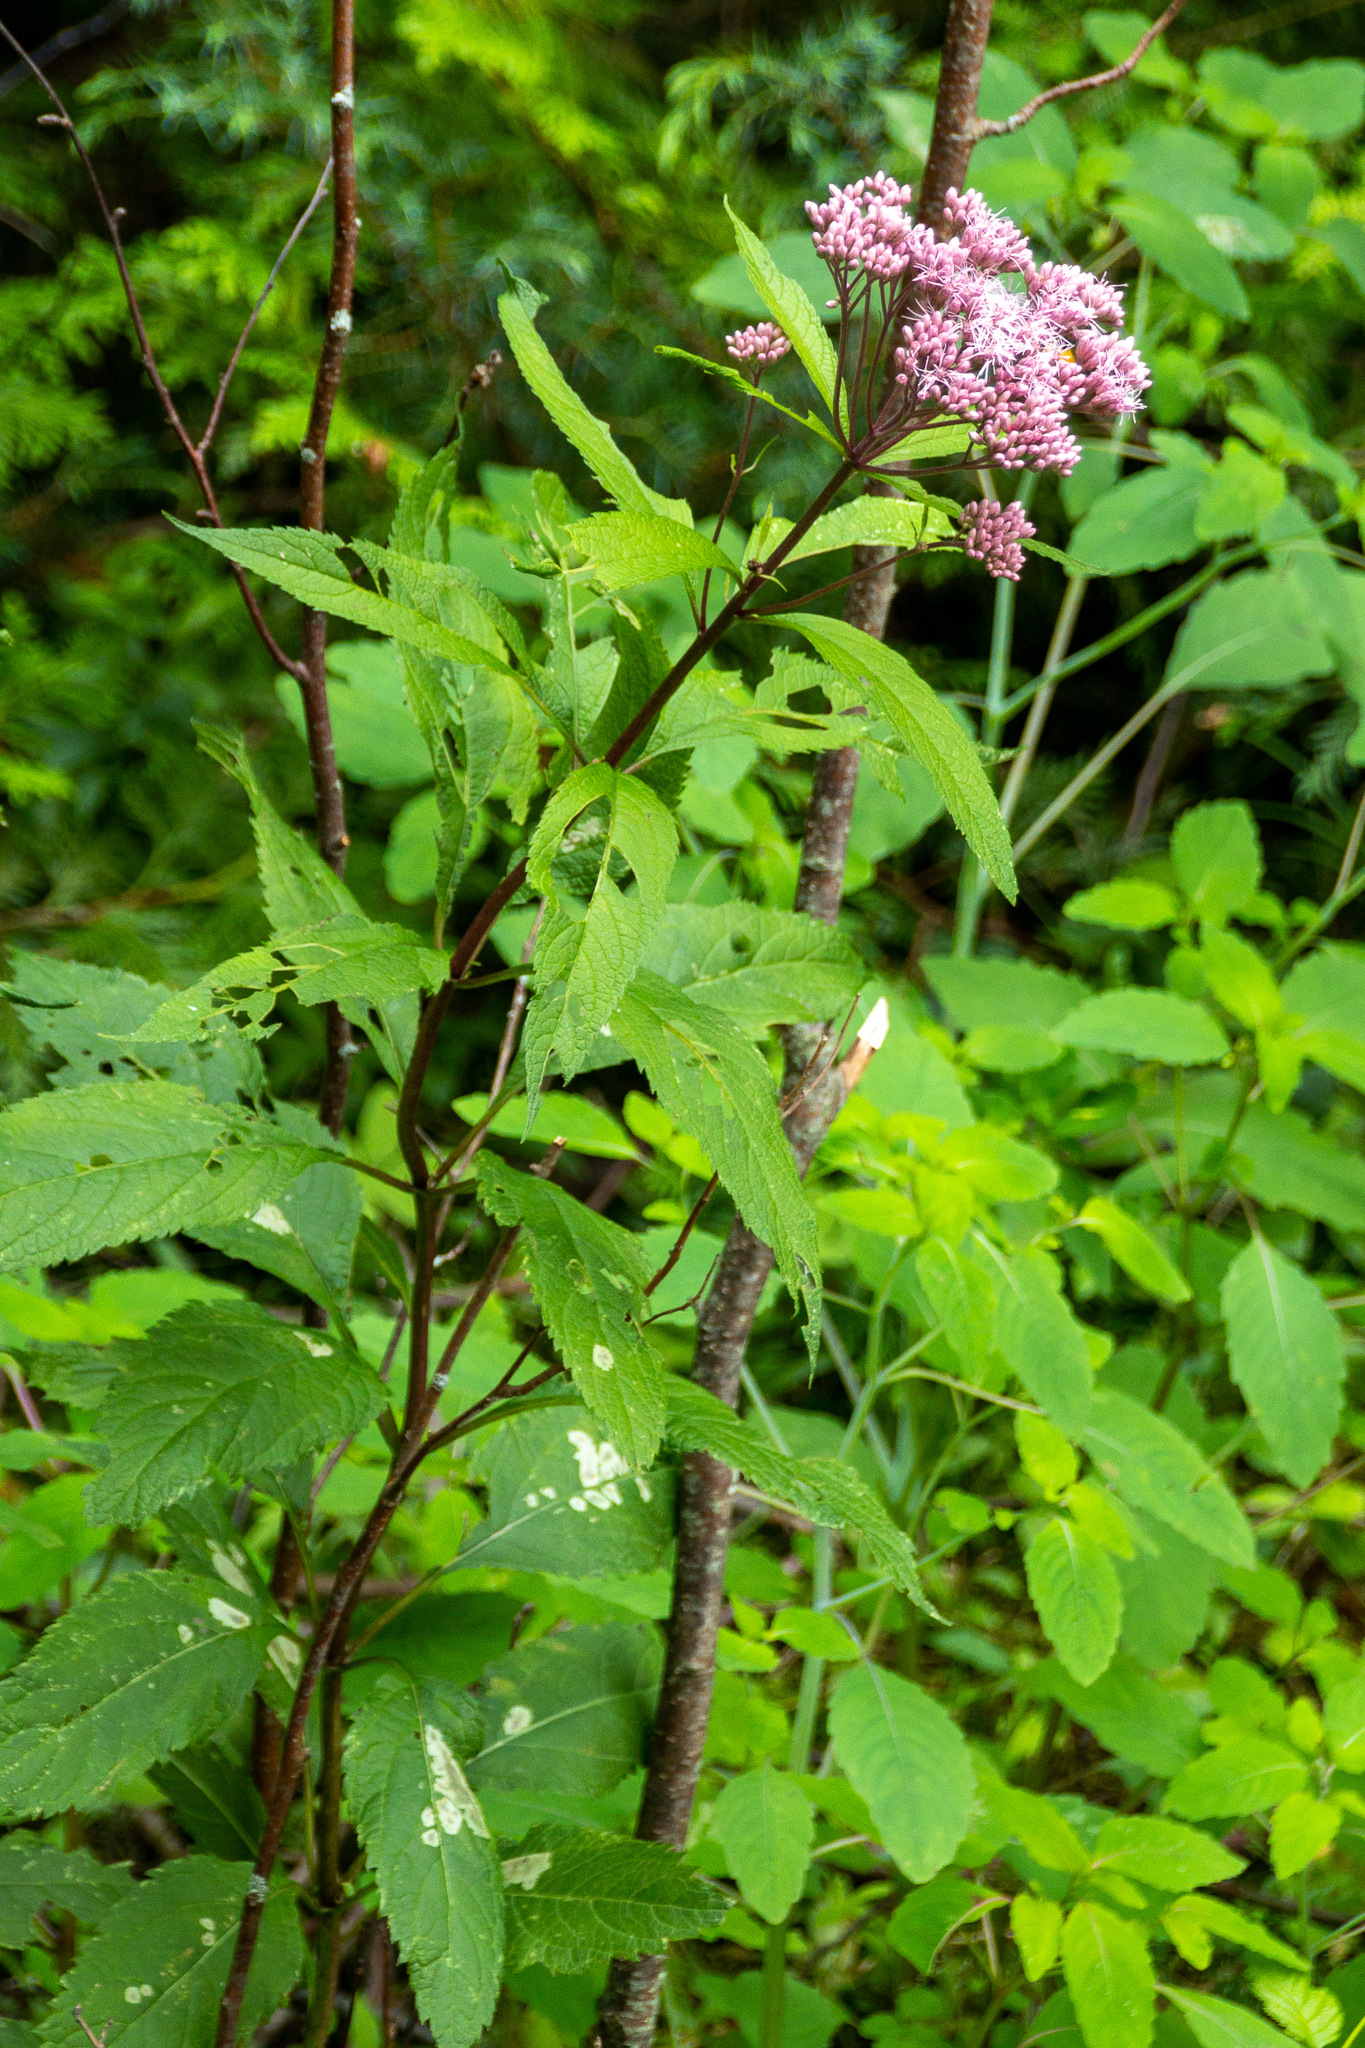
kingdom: Plantae
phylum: Tracheophyta
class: Magnoliopsida
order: Asterales
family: Asteraceae
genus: Eutrochium
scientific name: Eutrochium maculatum
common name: Spotted joe pye weed
